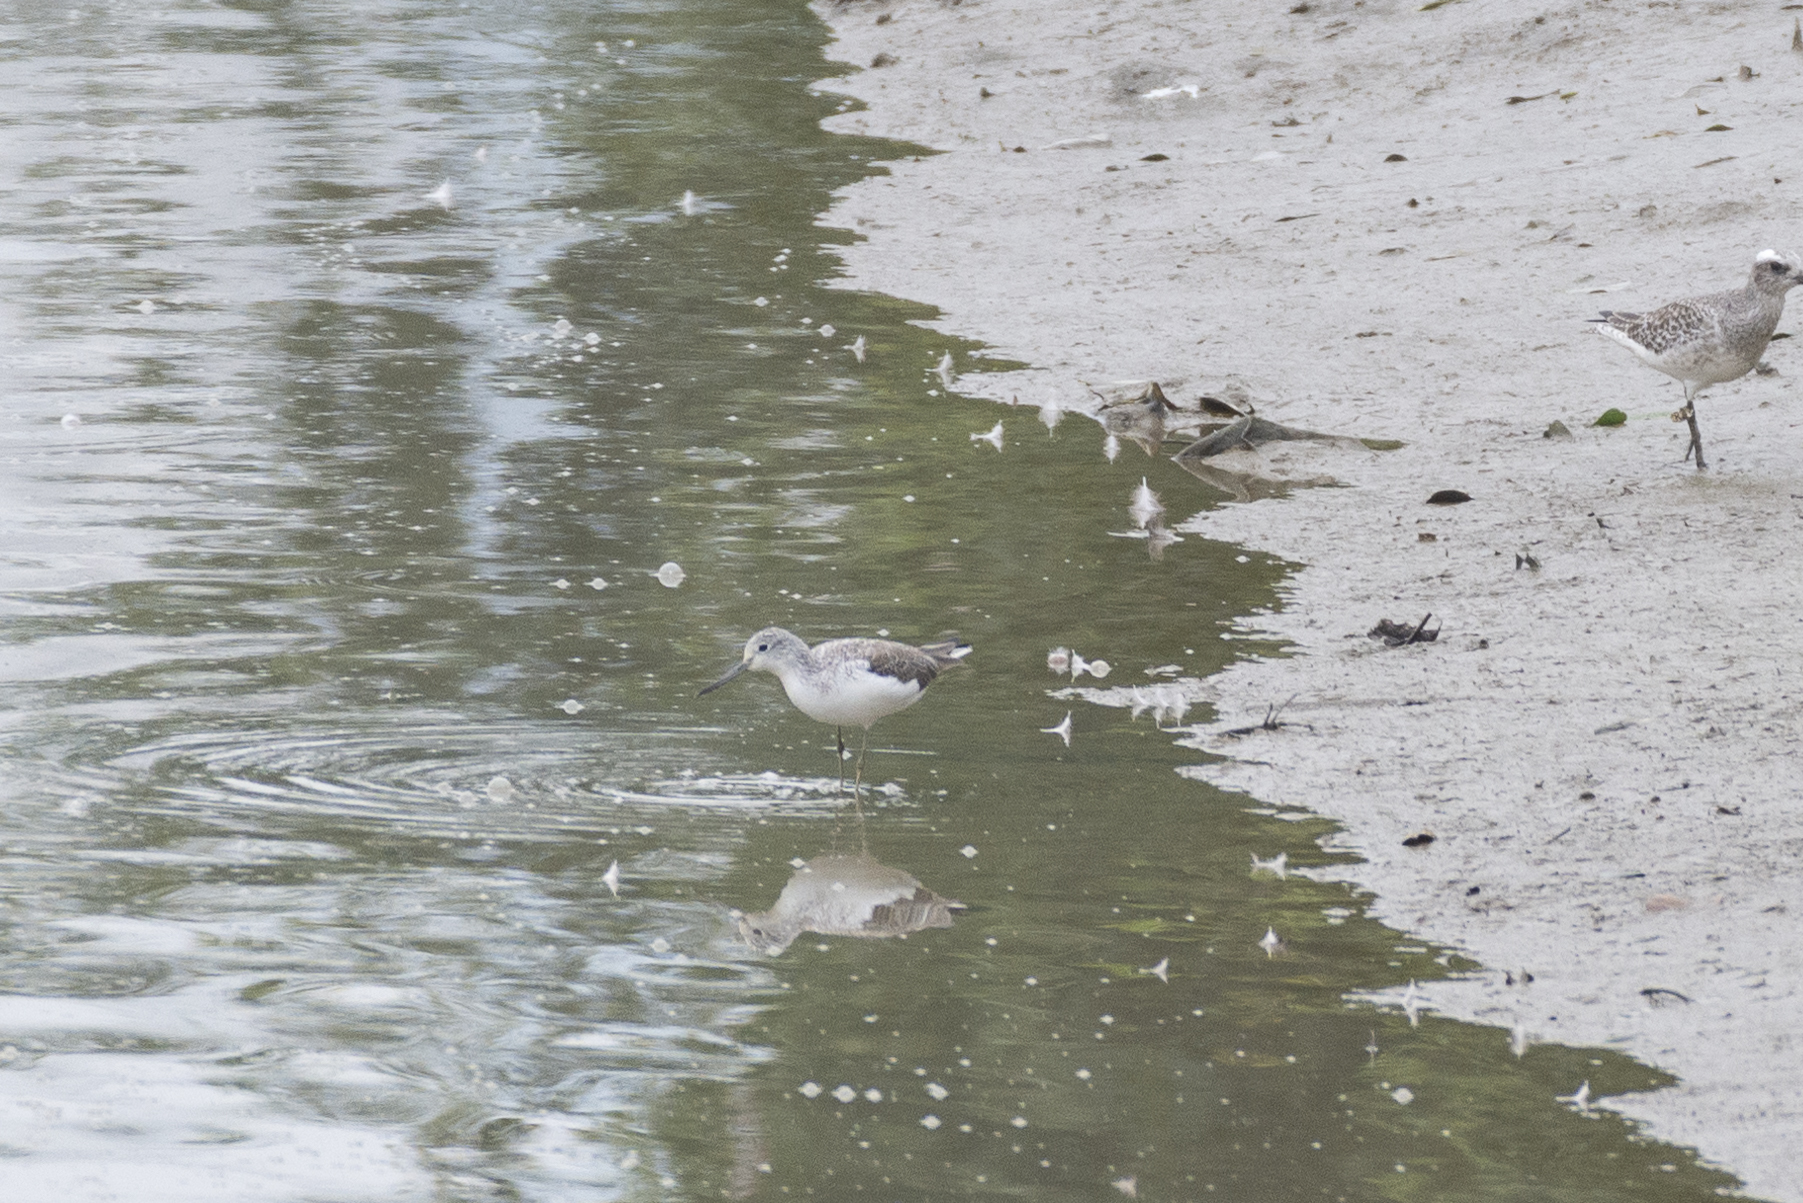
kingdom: Animalia
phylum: Chordata
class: Aves
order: Charadriiformes
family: Scolopacidae
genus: Tringa
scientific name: Tringa nebularia
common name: Common greenshank
